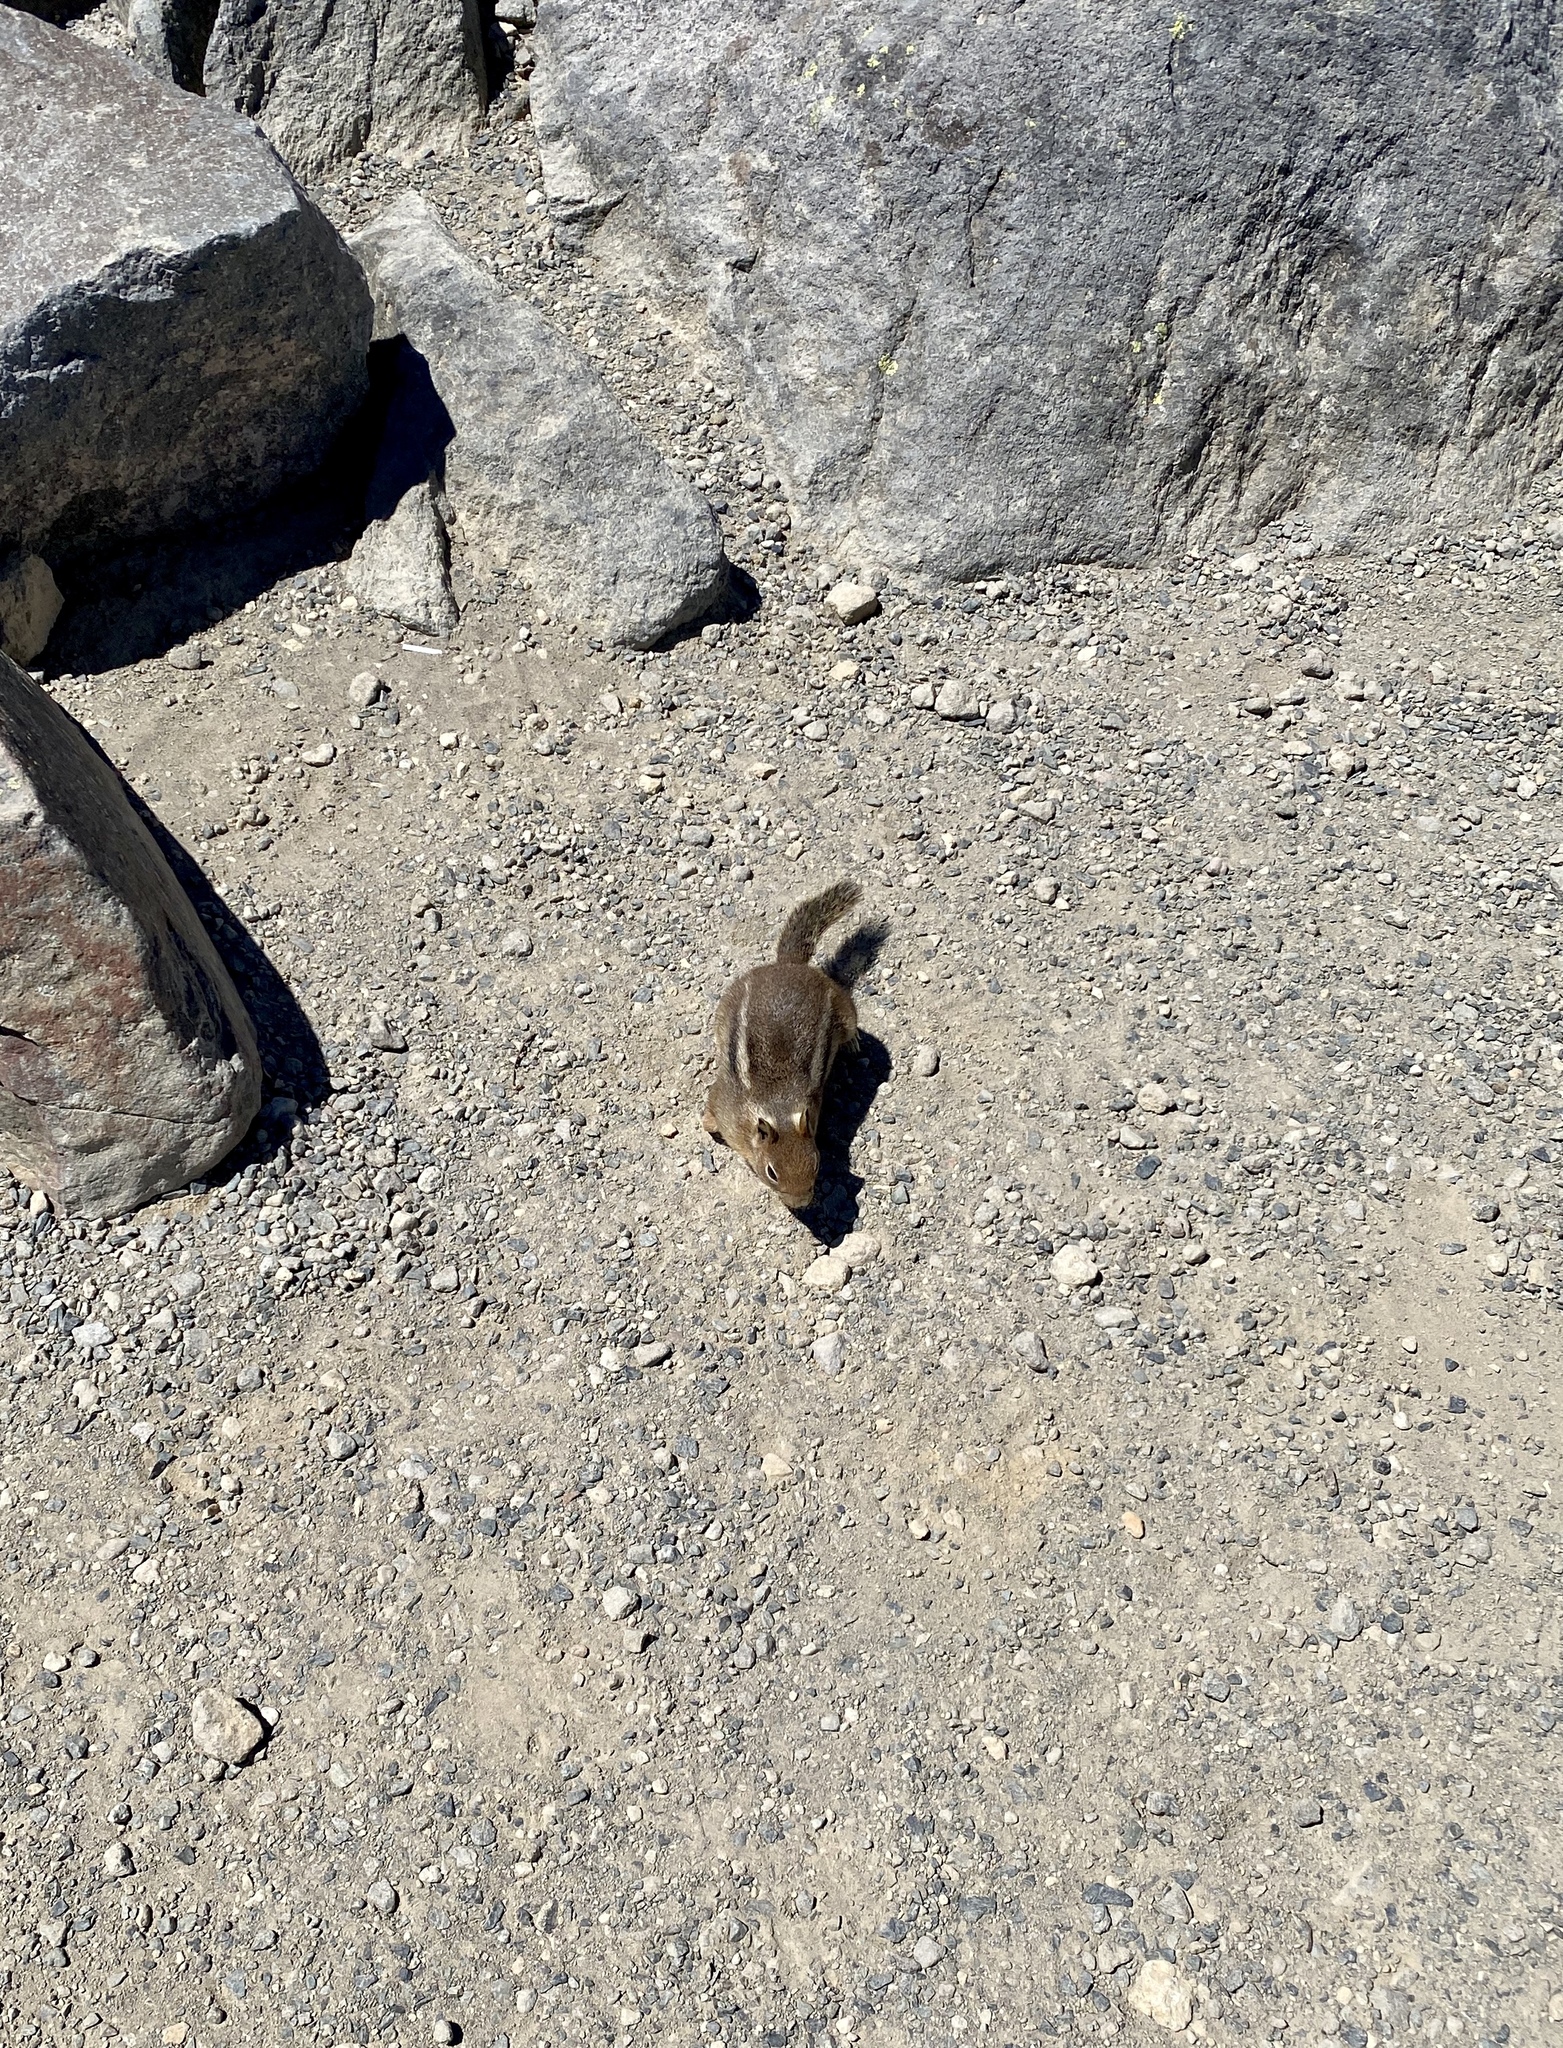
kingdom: Animalia
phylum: Chordata
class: Mammalia
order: Rodentia
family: Sciuridae
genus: Callospermophilus
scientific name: Callospermophilus saturatus
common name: Cascade golden-mantled ground squirrel
